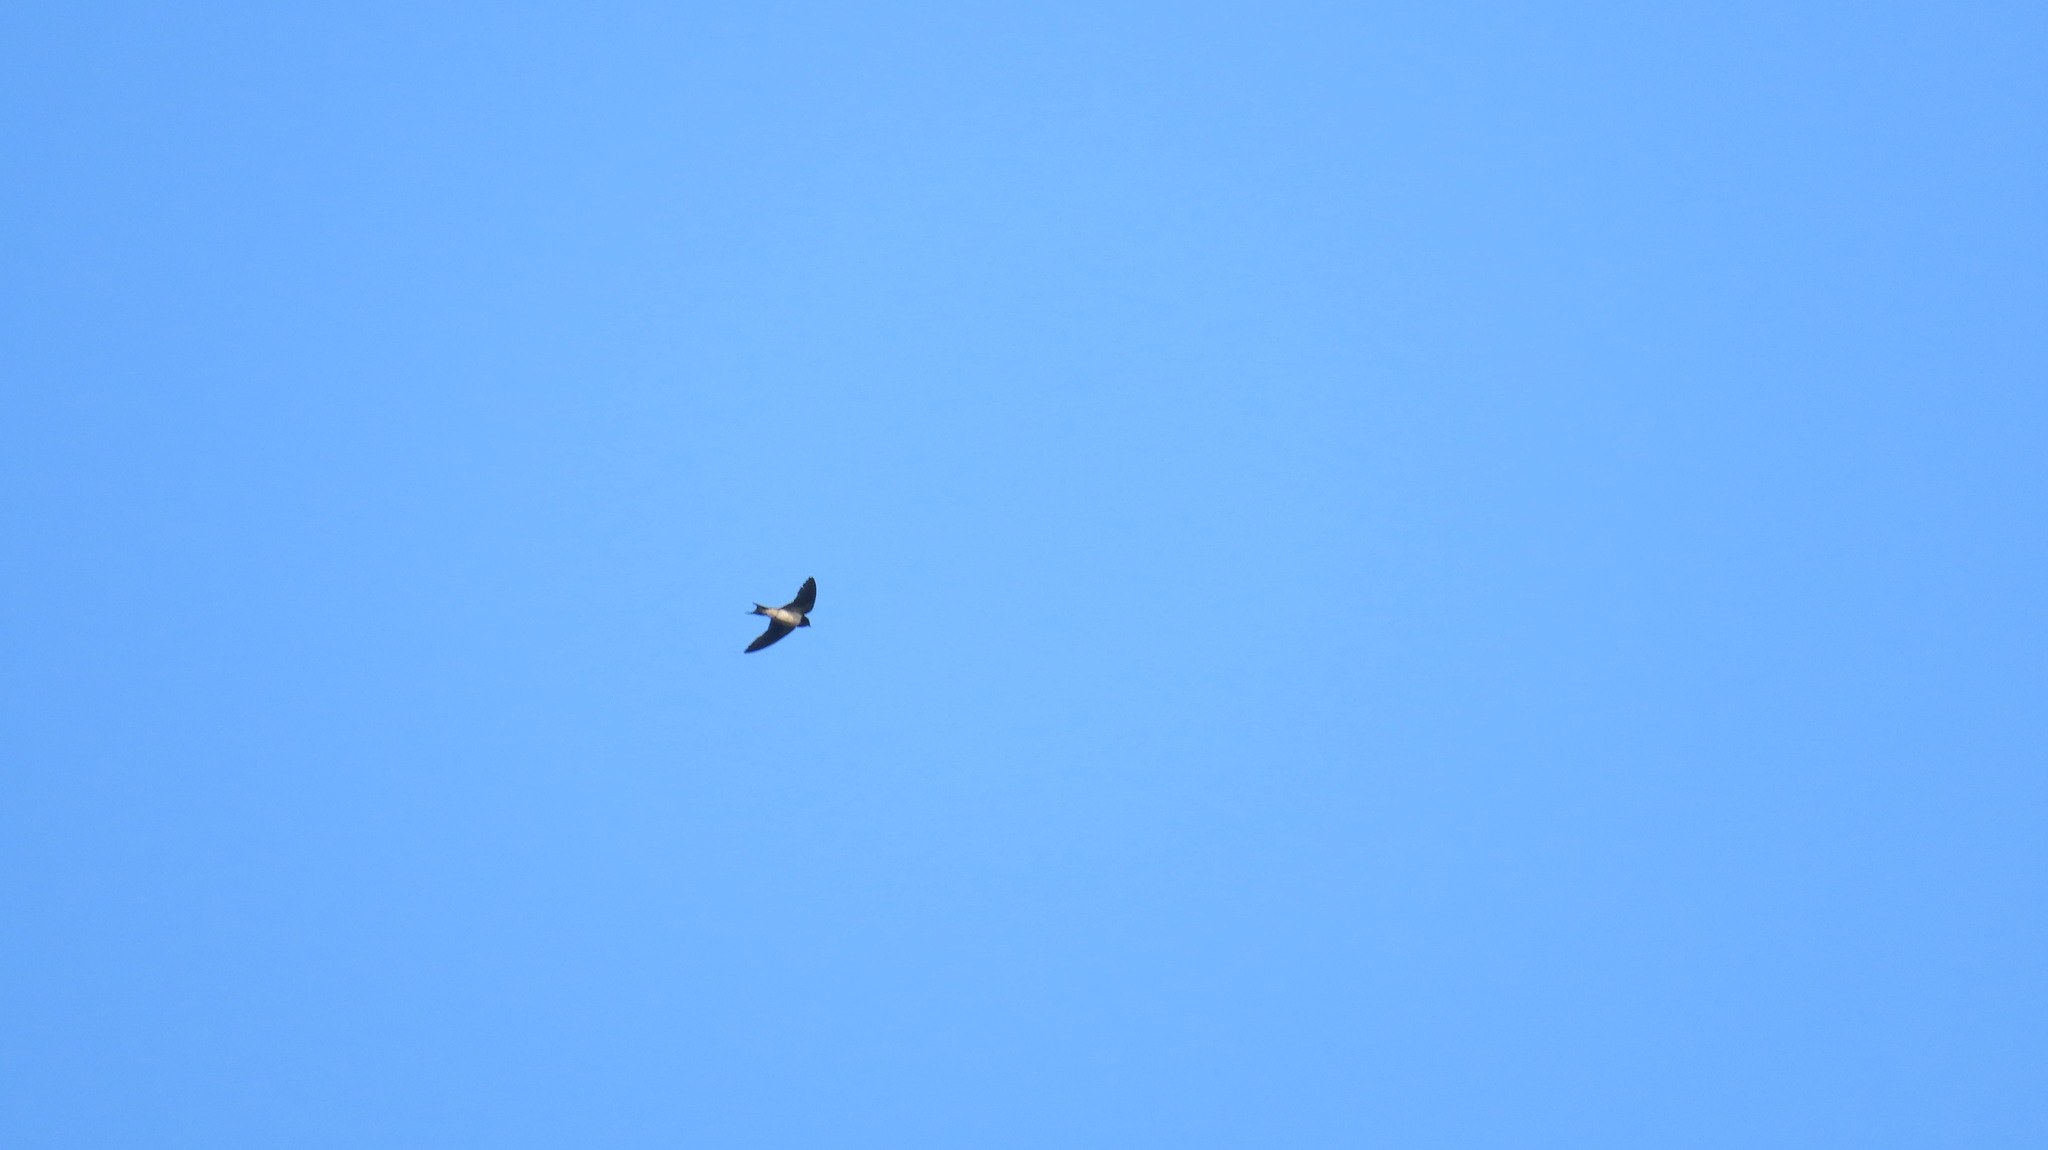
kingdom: Animalia
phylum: Chordata
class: Aves
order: Passeriformes
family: Hirundinidae
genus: Hirundo
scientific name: Hirundo rustica
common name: Barn swallow
